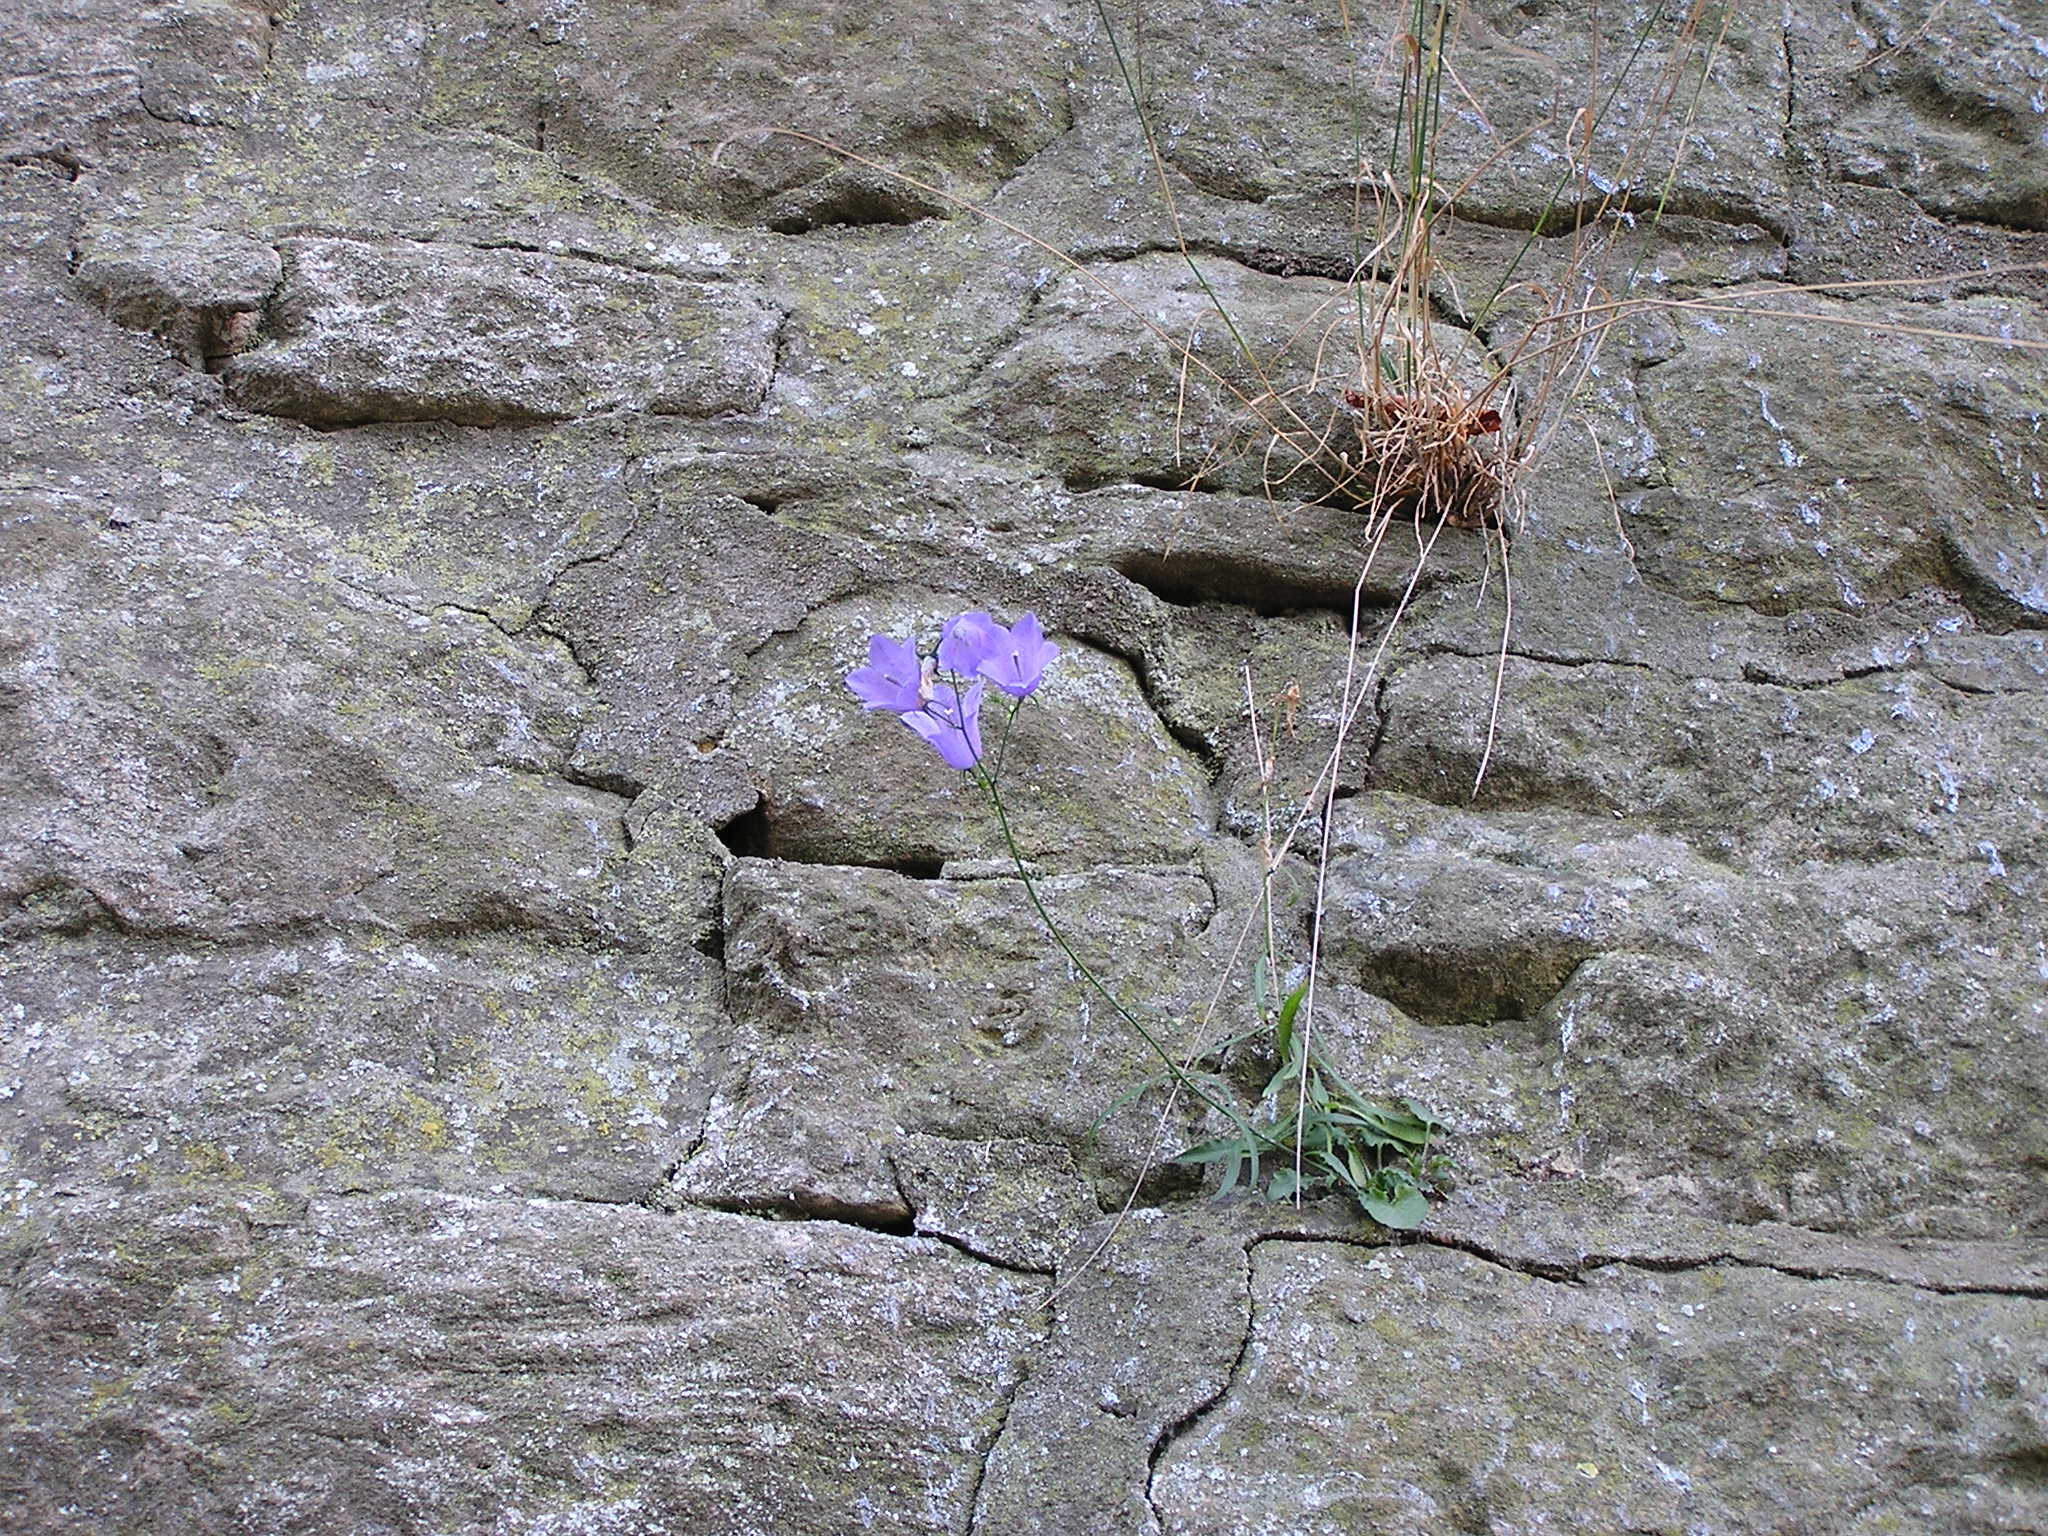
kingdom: Plantae
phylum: Tracheophyta
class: Magnoliopsida
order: Asterales
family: Campanulaceae
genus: Campanula
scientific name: Campanula rotundifolia
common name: Harebell
